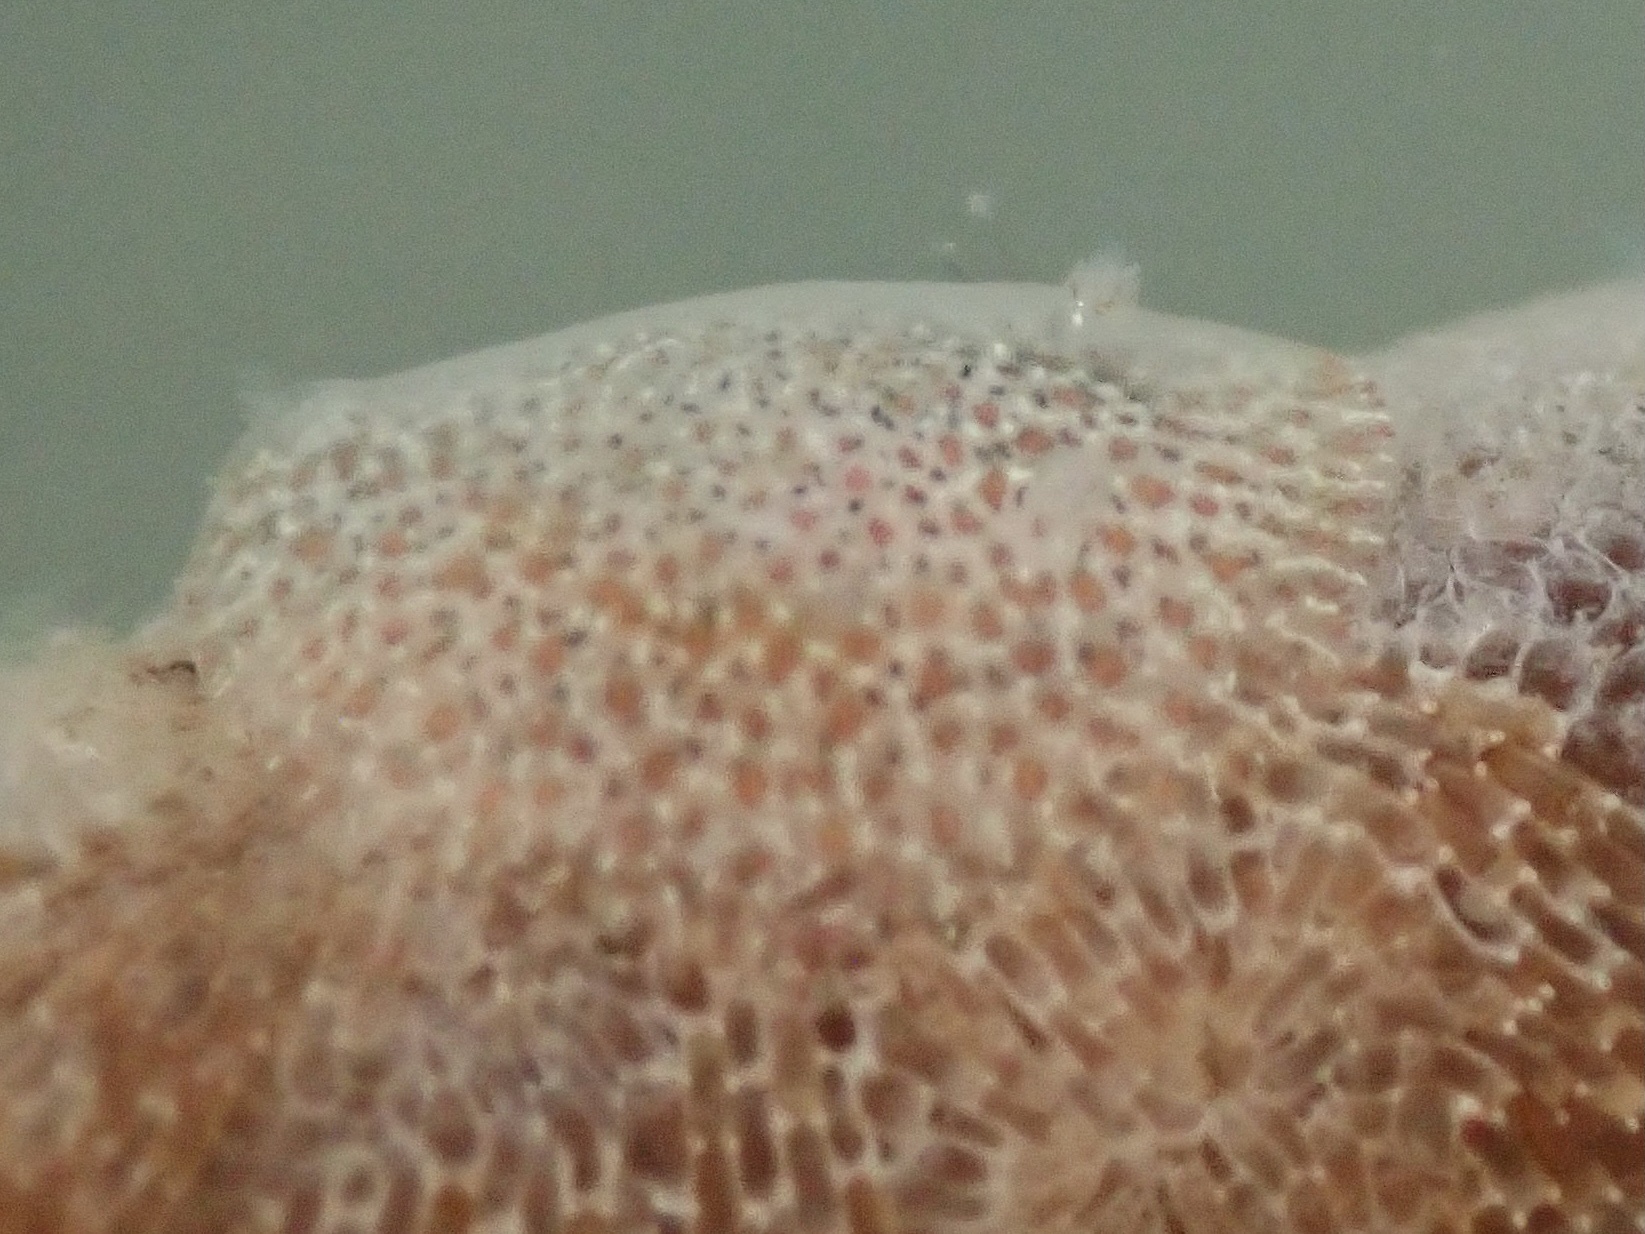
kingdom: Animalia
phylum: Mollusca
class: Gastropoda
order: Nudibranchia
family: Corambidae
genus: Corambe
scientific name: Corambe pacifica
